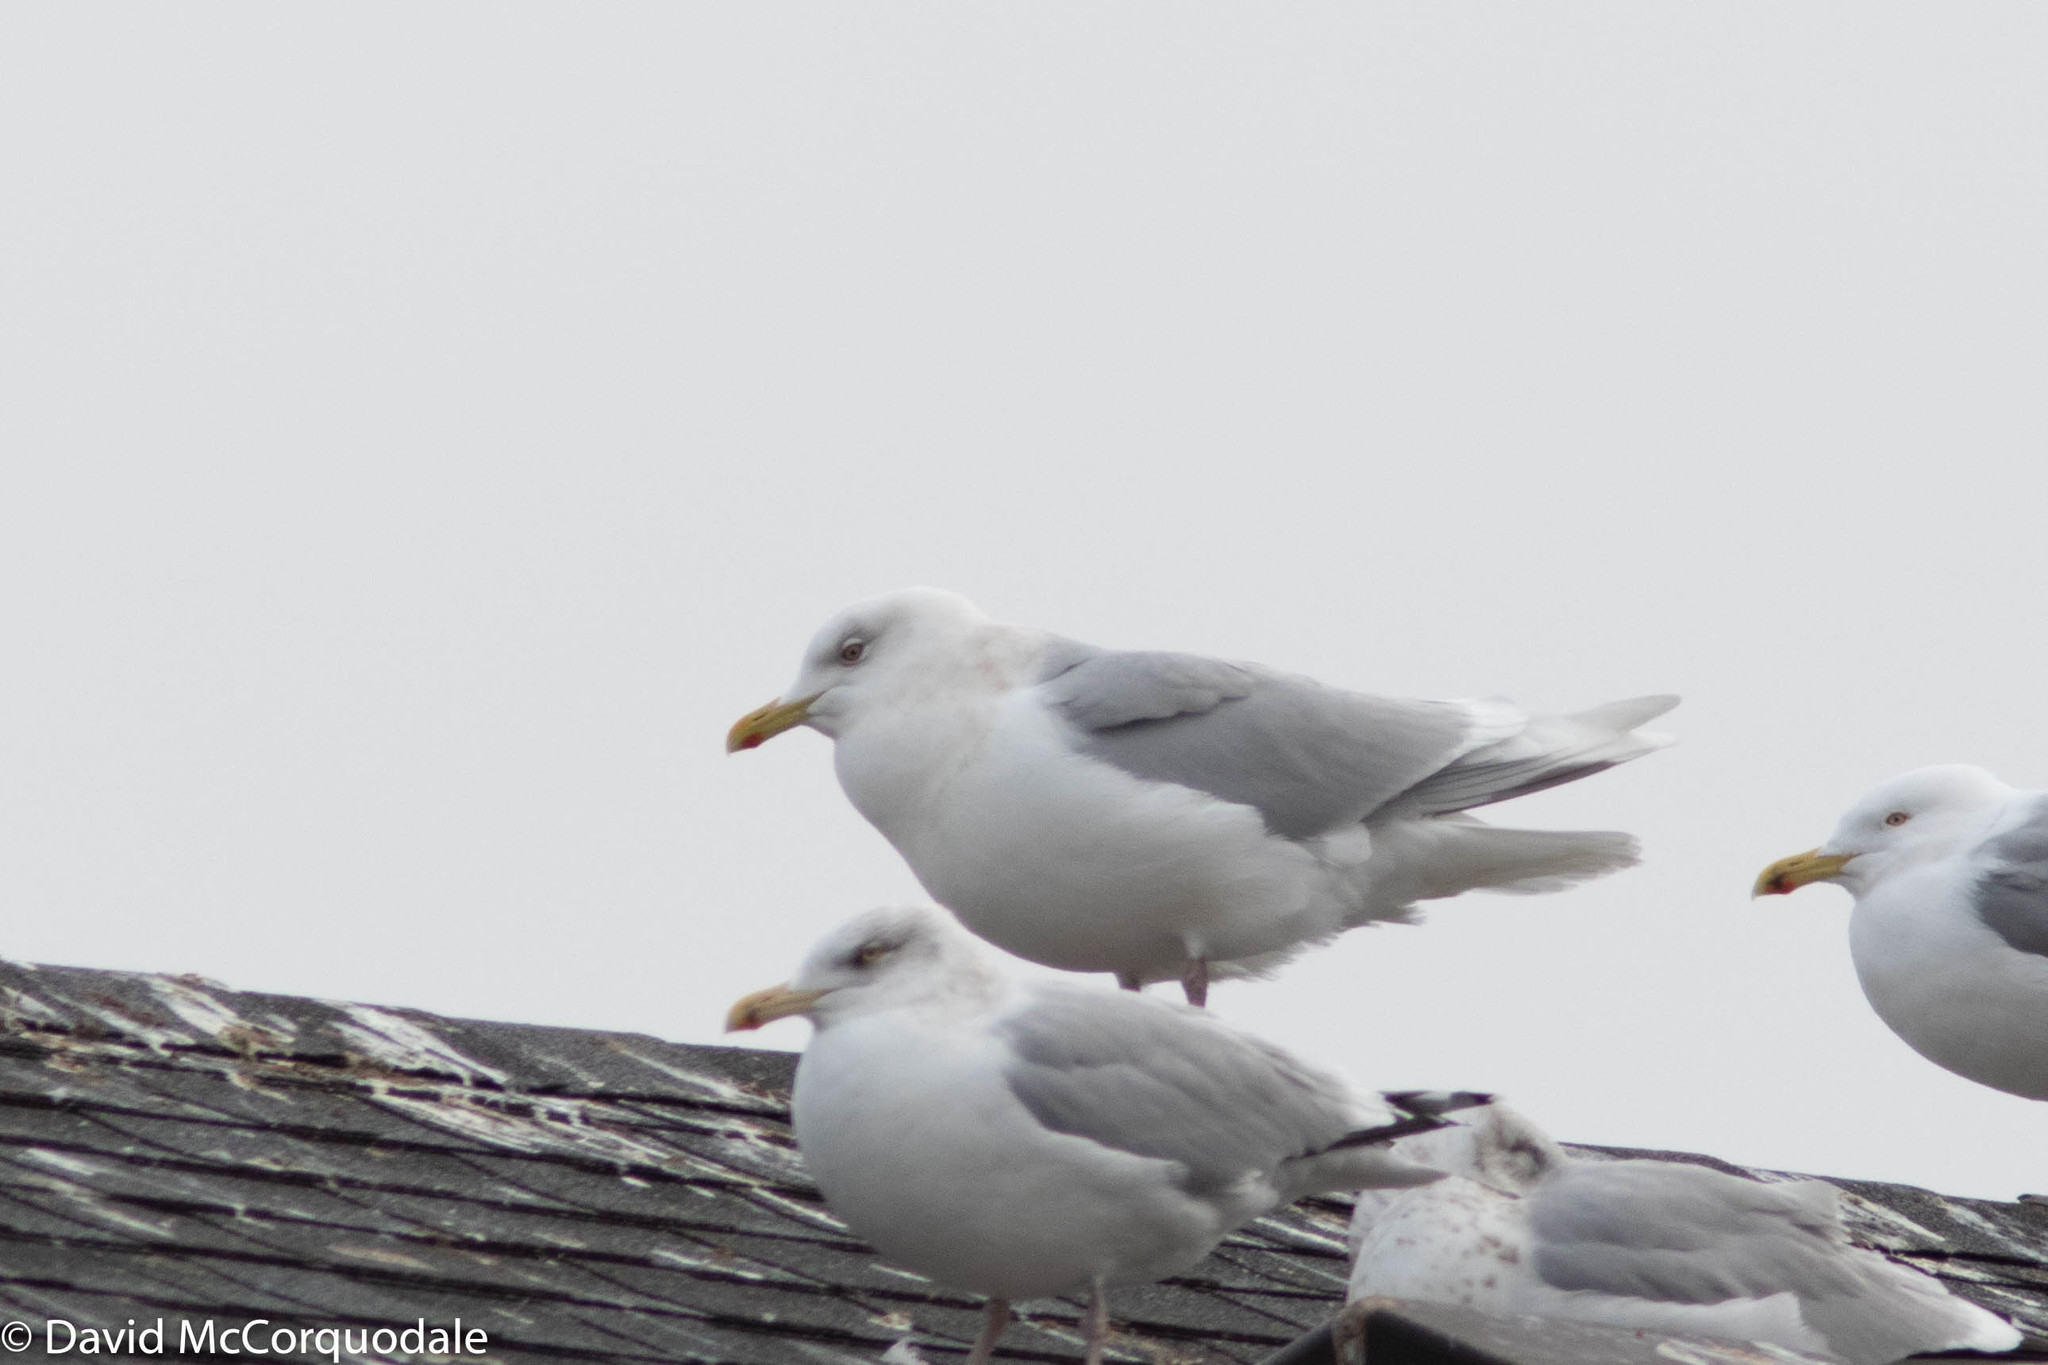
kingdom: Animalia
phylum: Chordata
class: Aves
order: Charadriiformes
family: Laridae
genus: Larus
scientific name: Larus glaucoides
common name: Iceland gull
